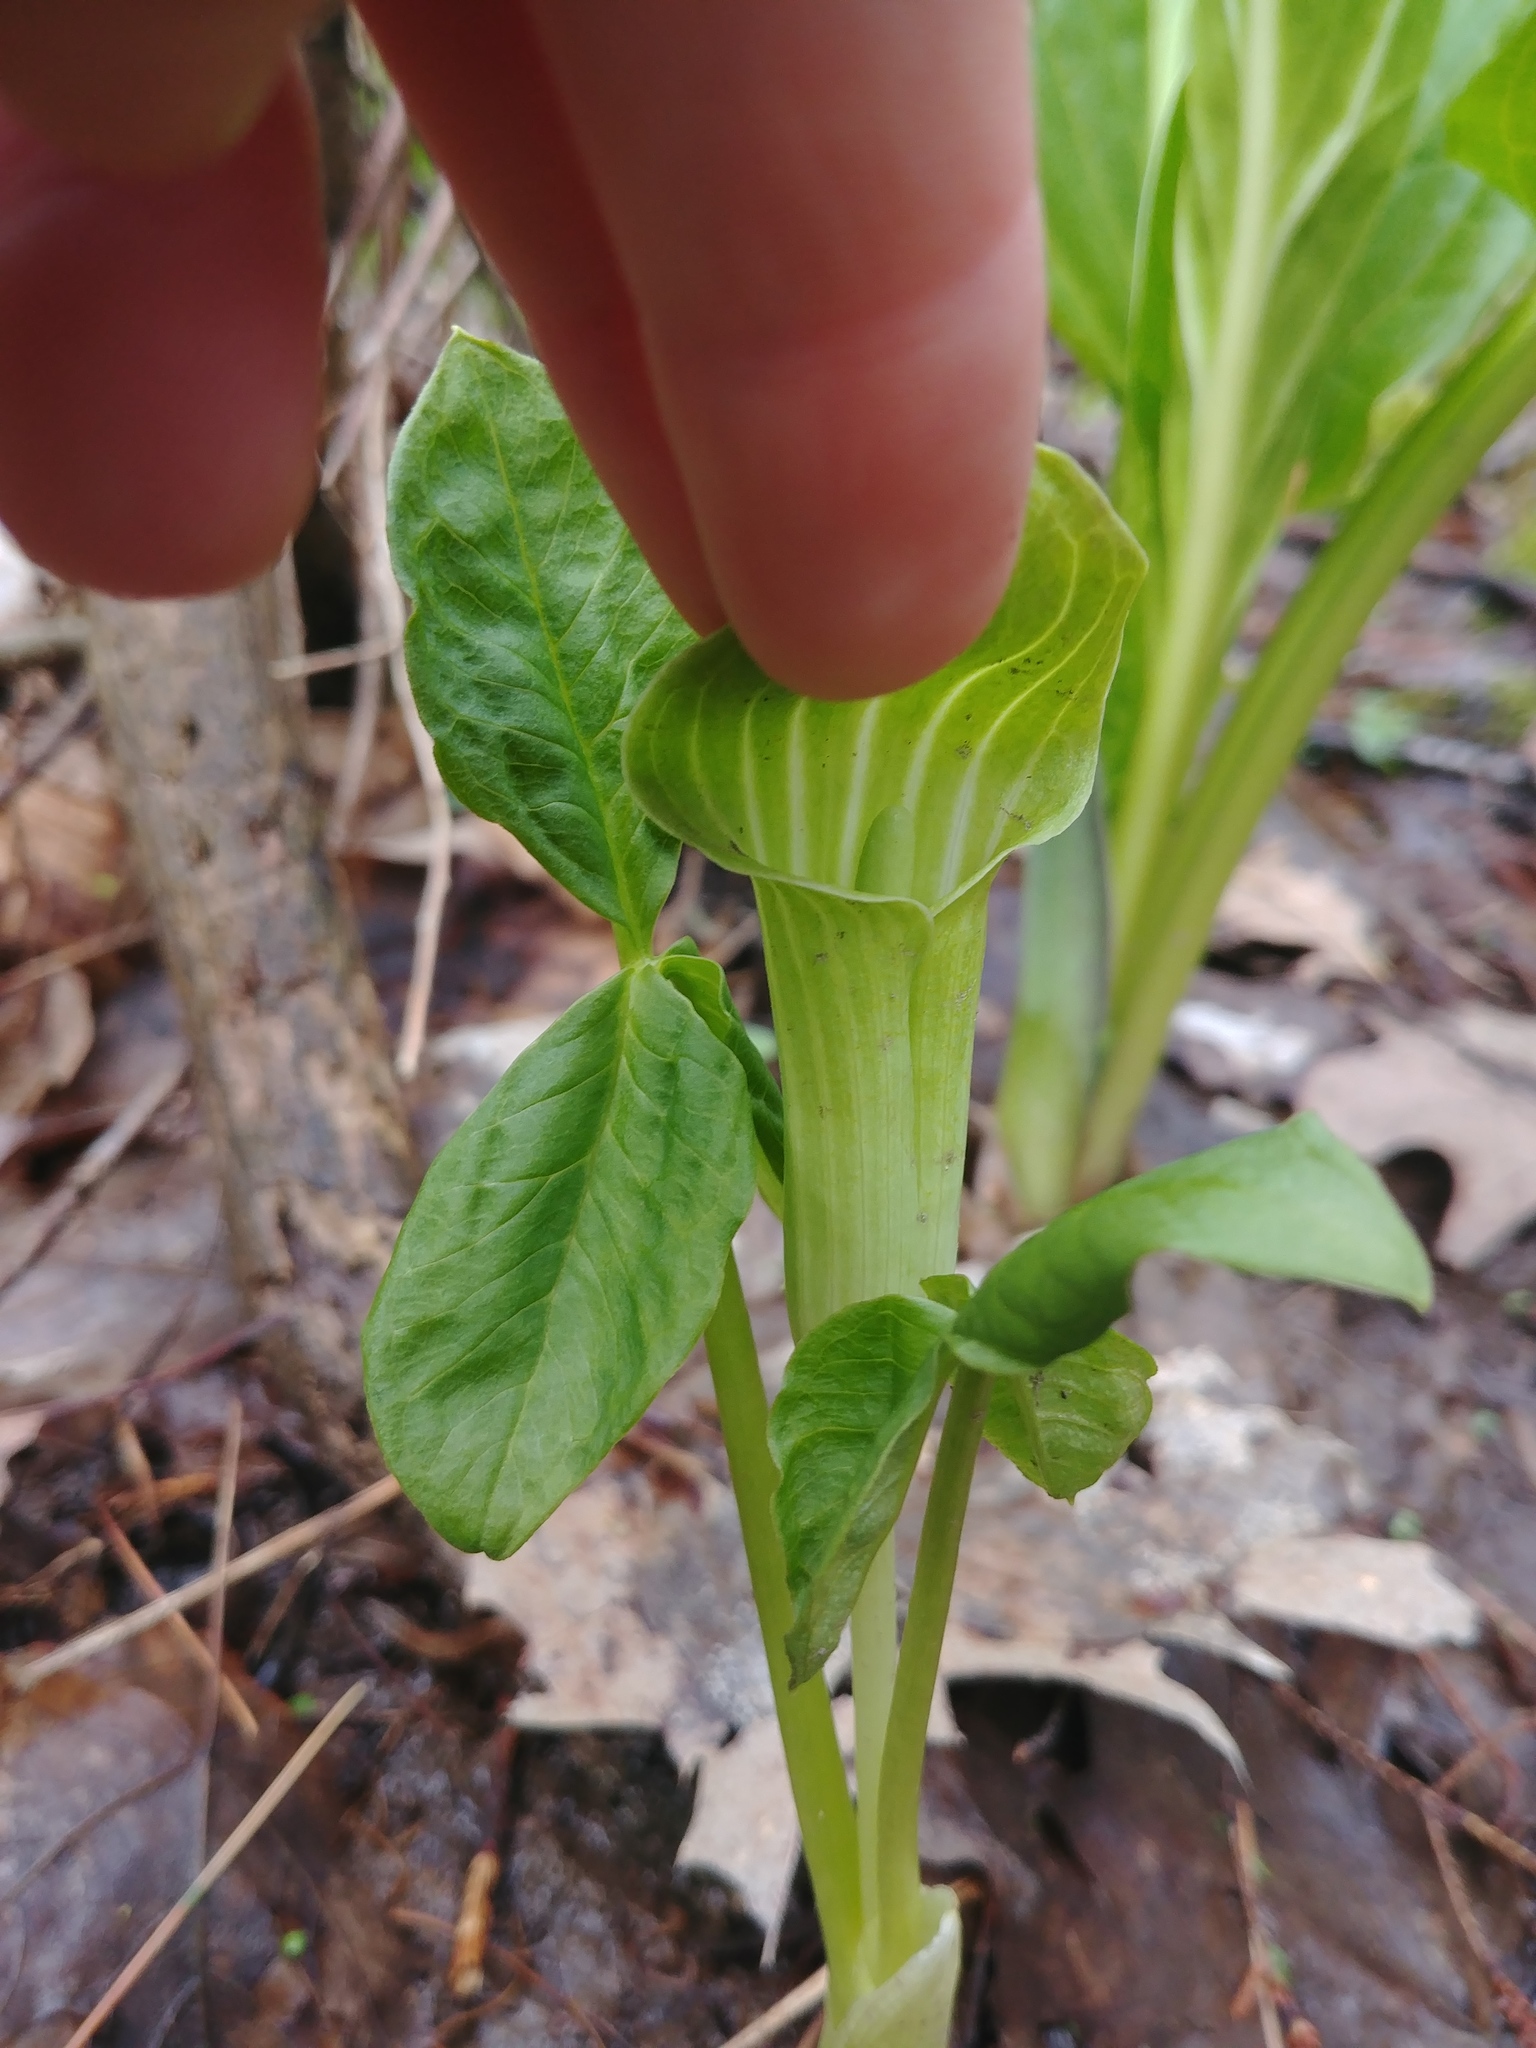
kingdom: Plantae
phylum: Tracheophyta
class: Liliopsida
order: Alismatales
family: Araceae
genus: Arisaema
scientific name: Arisaema triphyllum
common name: Jack-in-the-pulpit
